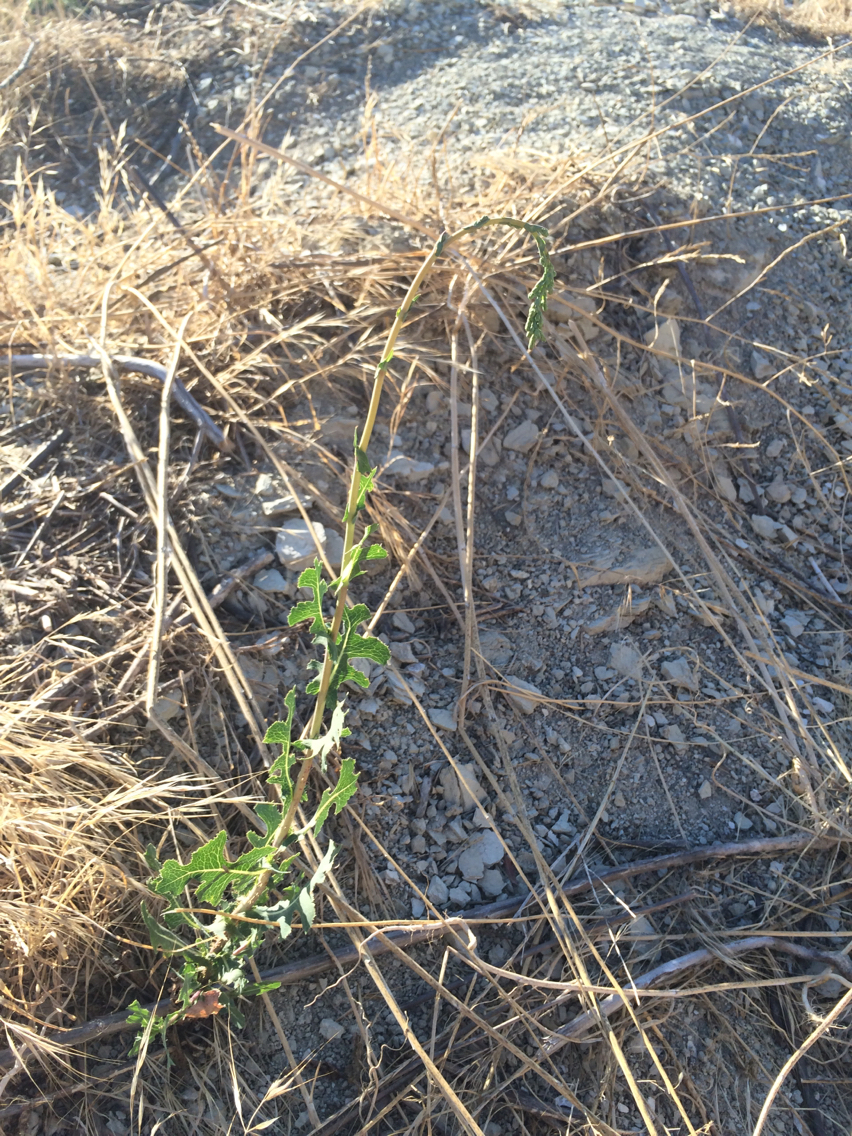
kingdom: Plantae
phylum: Tracheophyta
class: Magnoliopsida
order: Asterales
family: Asteraceae
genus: Lactuca
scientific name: Lactuca serriola
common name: Prickly lettuce
